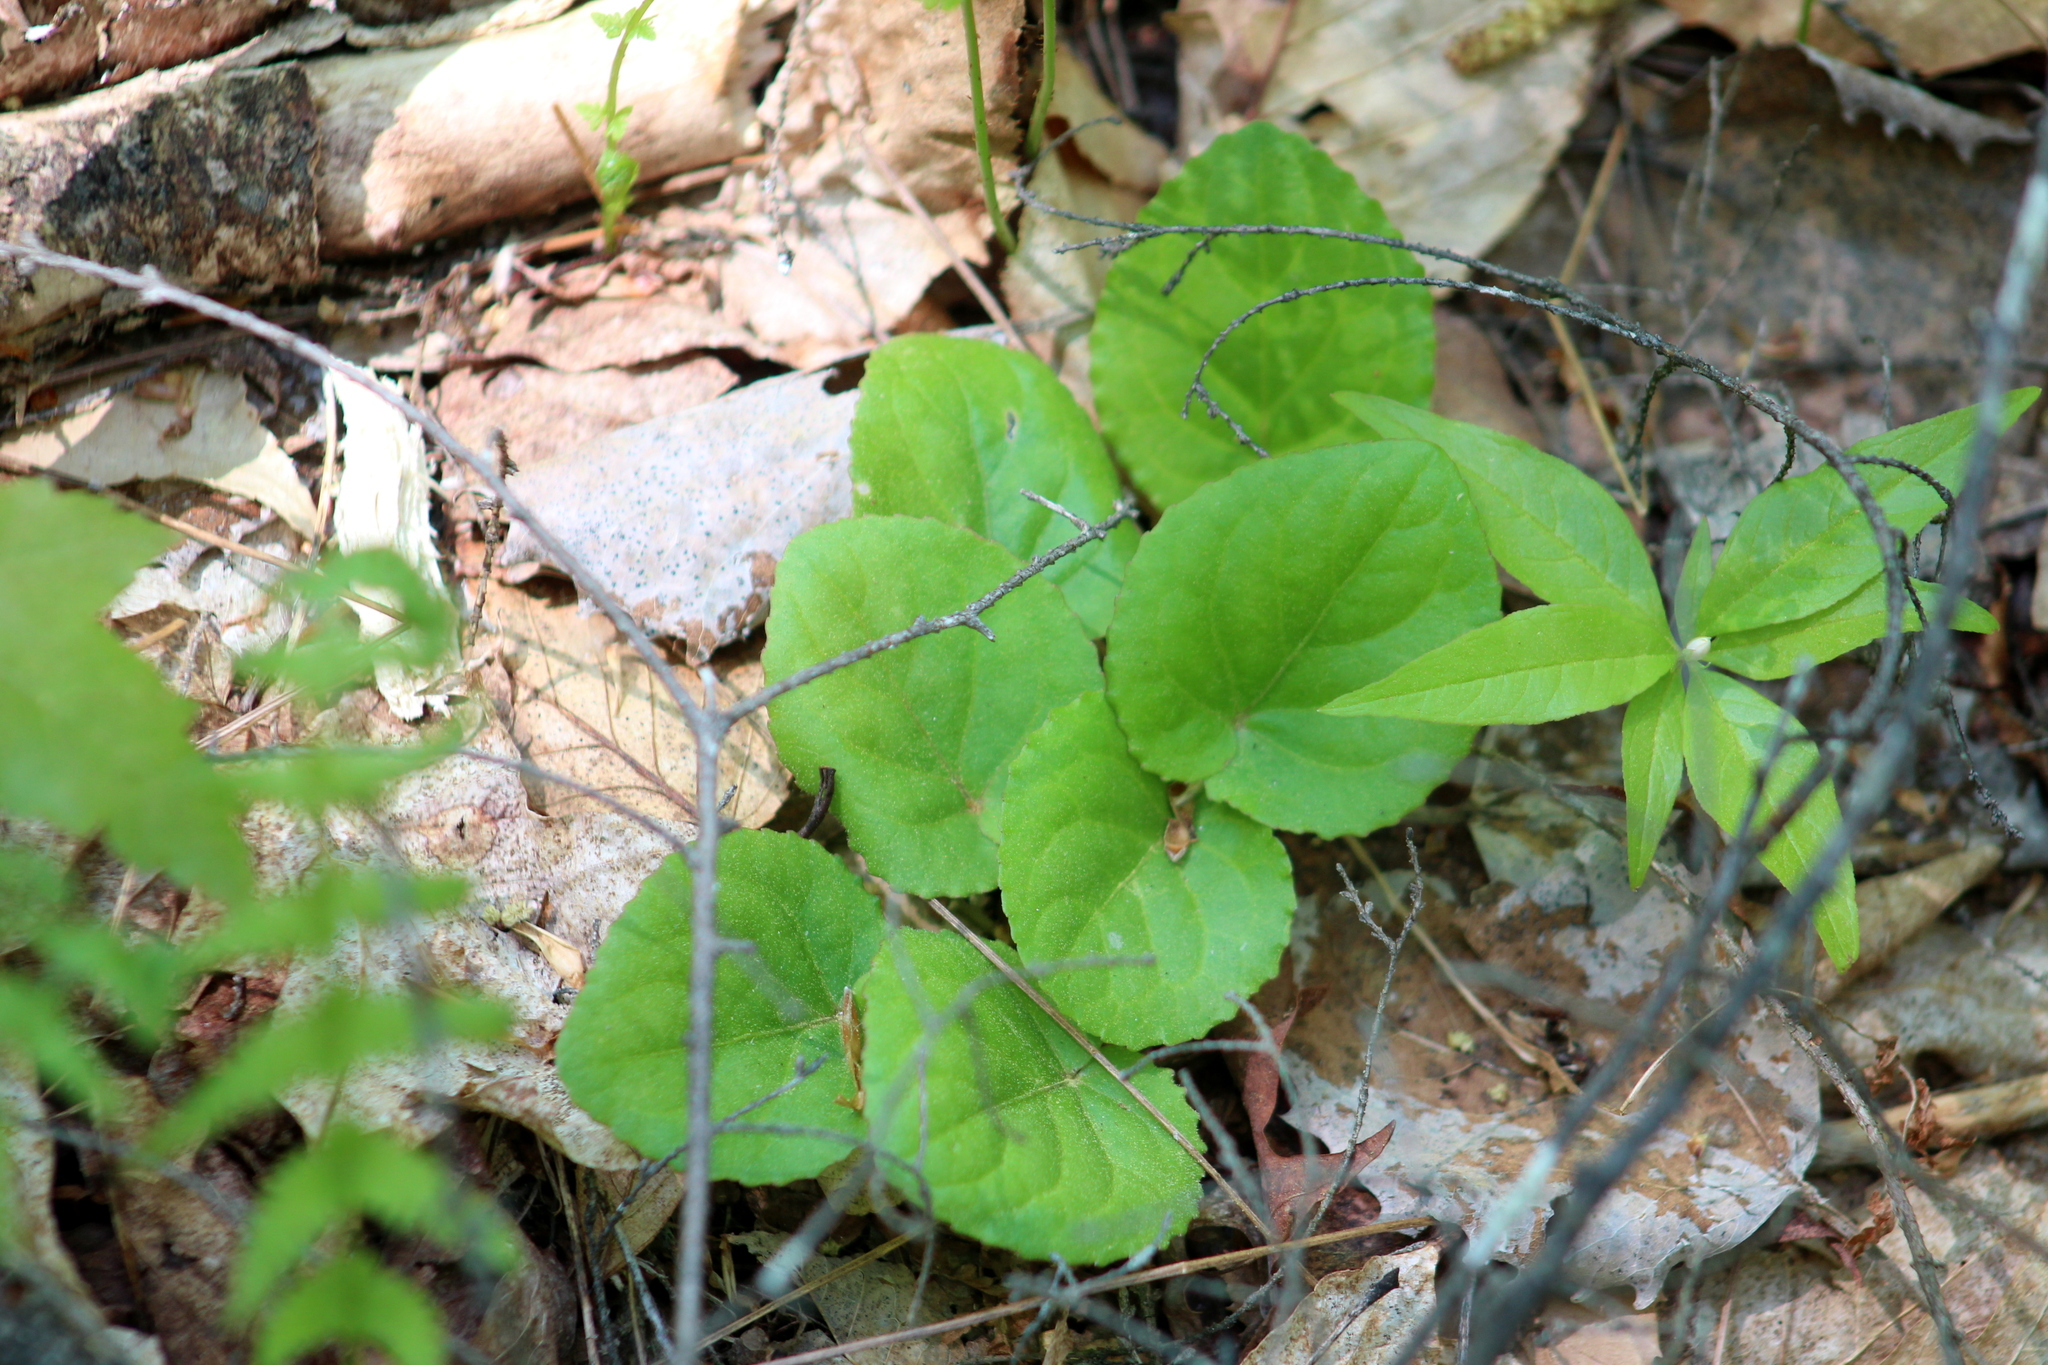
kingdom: Plantae
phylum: Tracheophyta
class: Magnoliopsida
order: Malpighiales
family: Violaceae
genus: Viola
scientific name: Viola rotundifolia
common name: Early yellow violet
